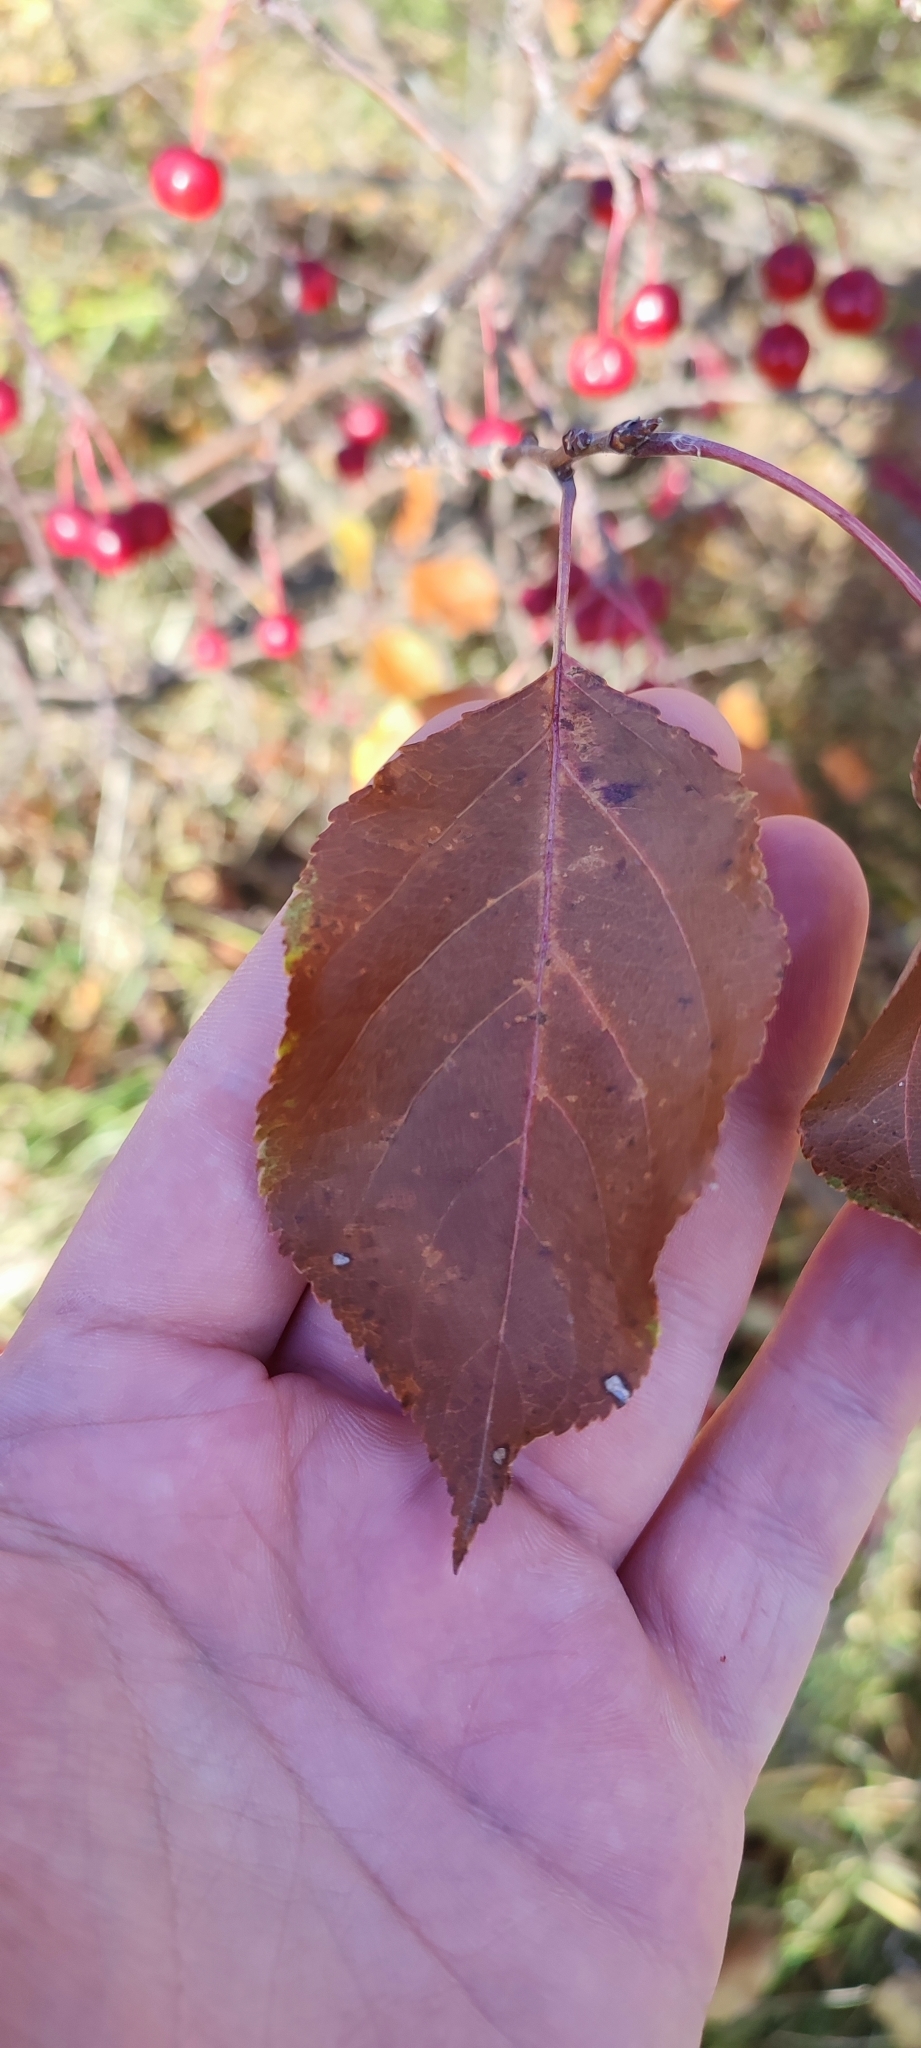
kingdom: Plantae
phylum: Tracheophyta
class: Magnoliopsida
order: Rosales
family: Rosaceae
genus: Malus
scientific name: Malus baccata
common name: Siberian crab
